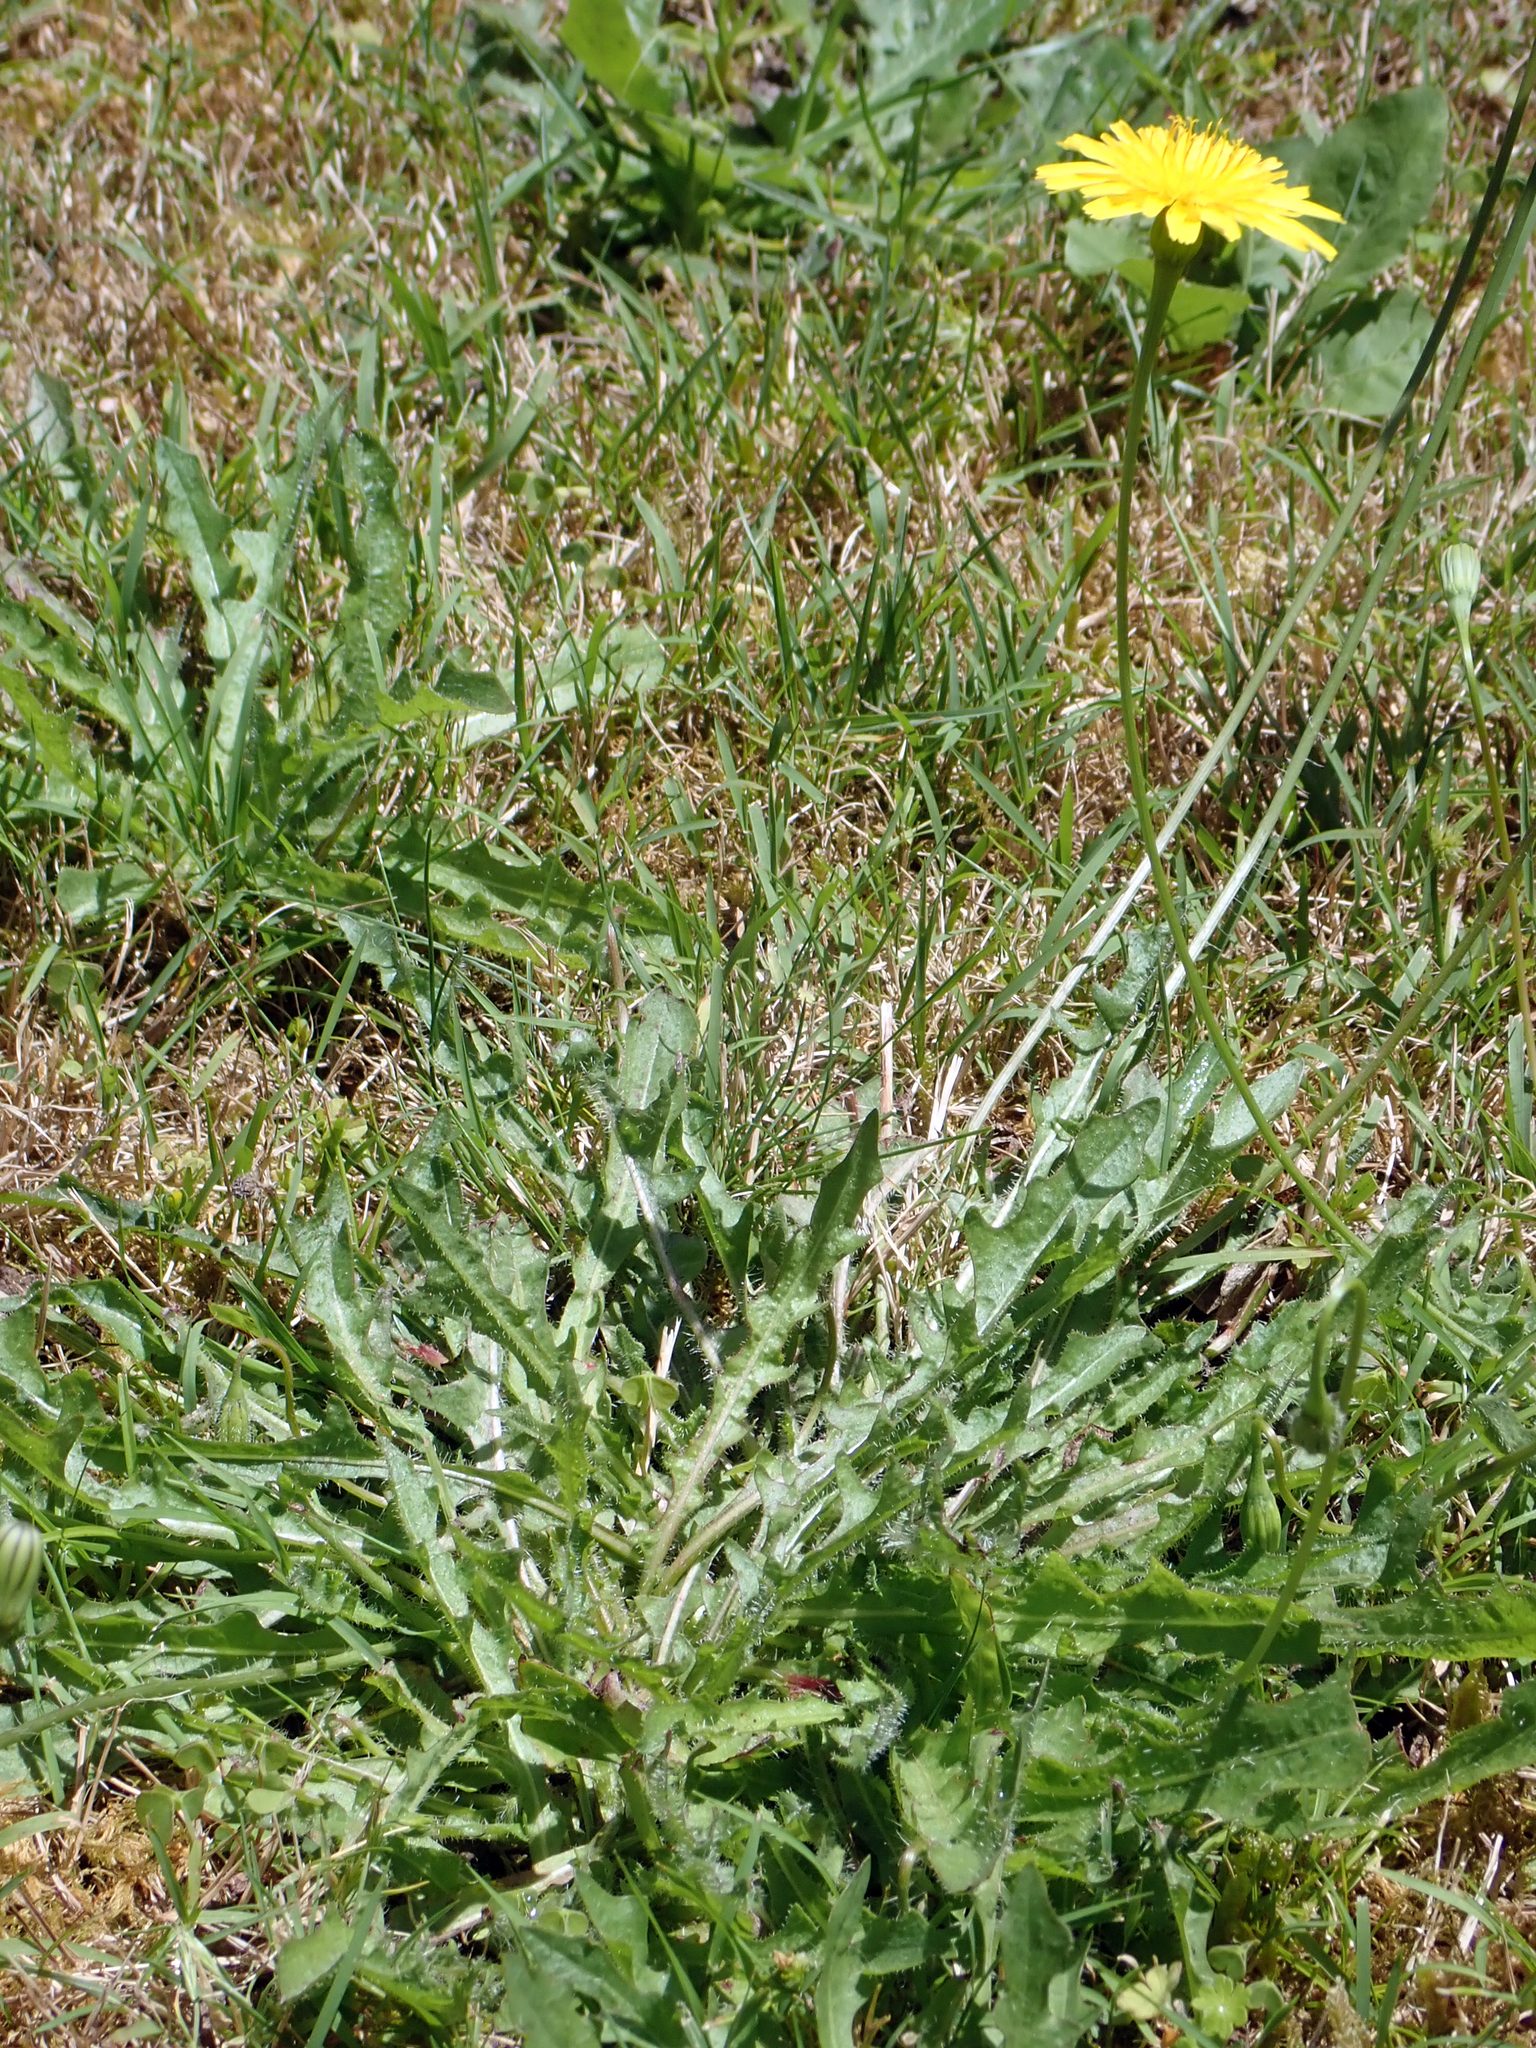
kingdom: Plantae
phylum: Tracheophyta
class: Magnoliopsida
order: Asterales
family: Asteraceae
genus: Thrincia
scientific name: Thrincia saxatilis
